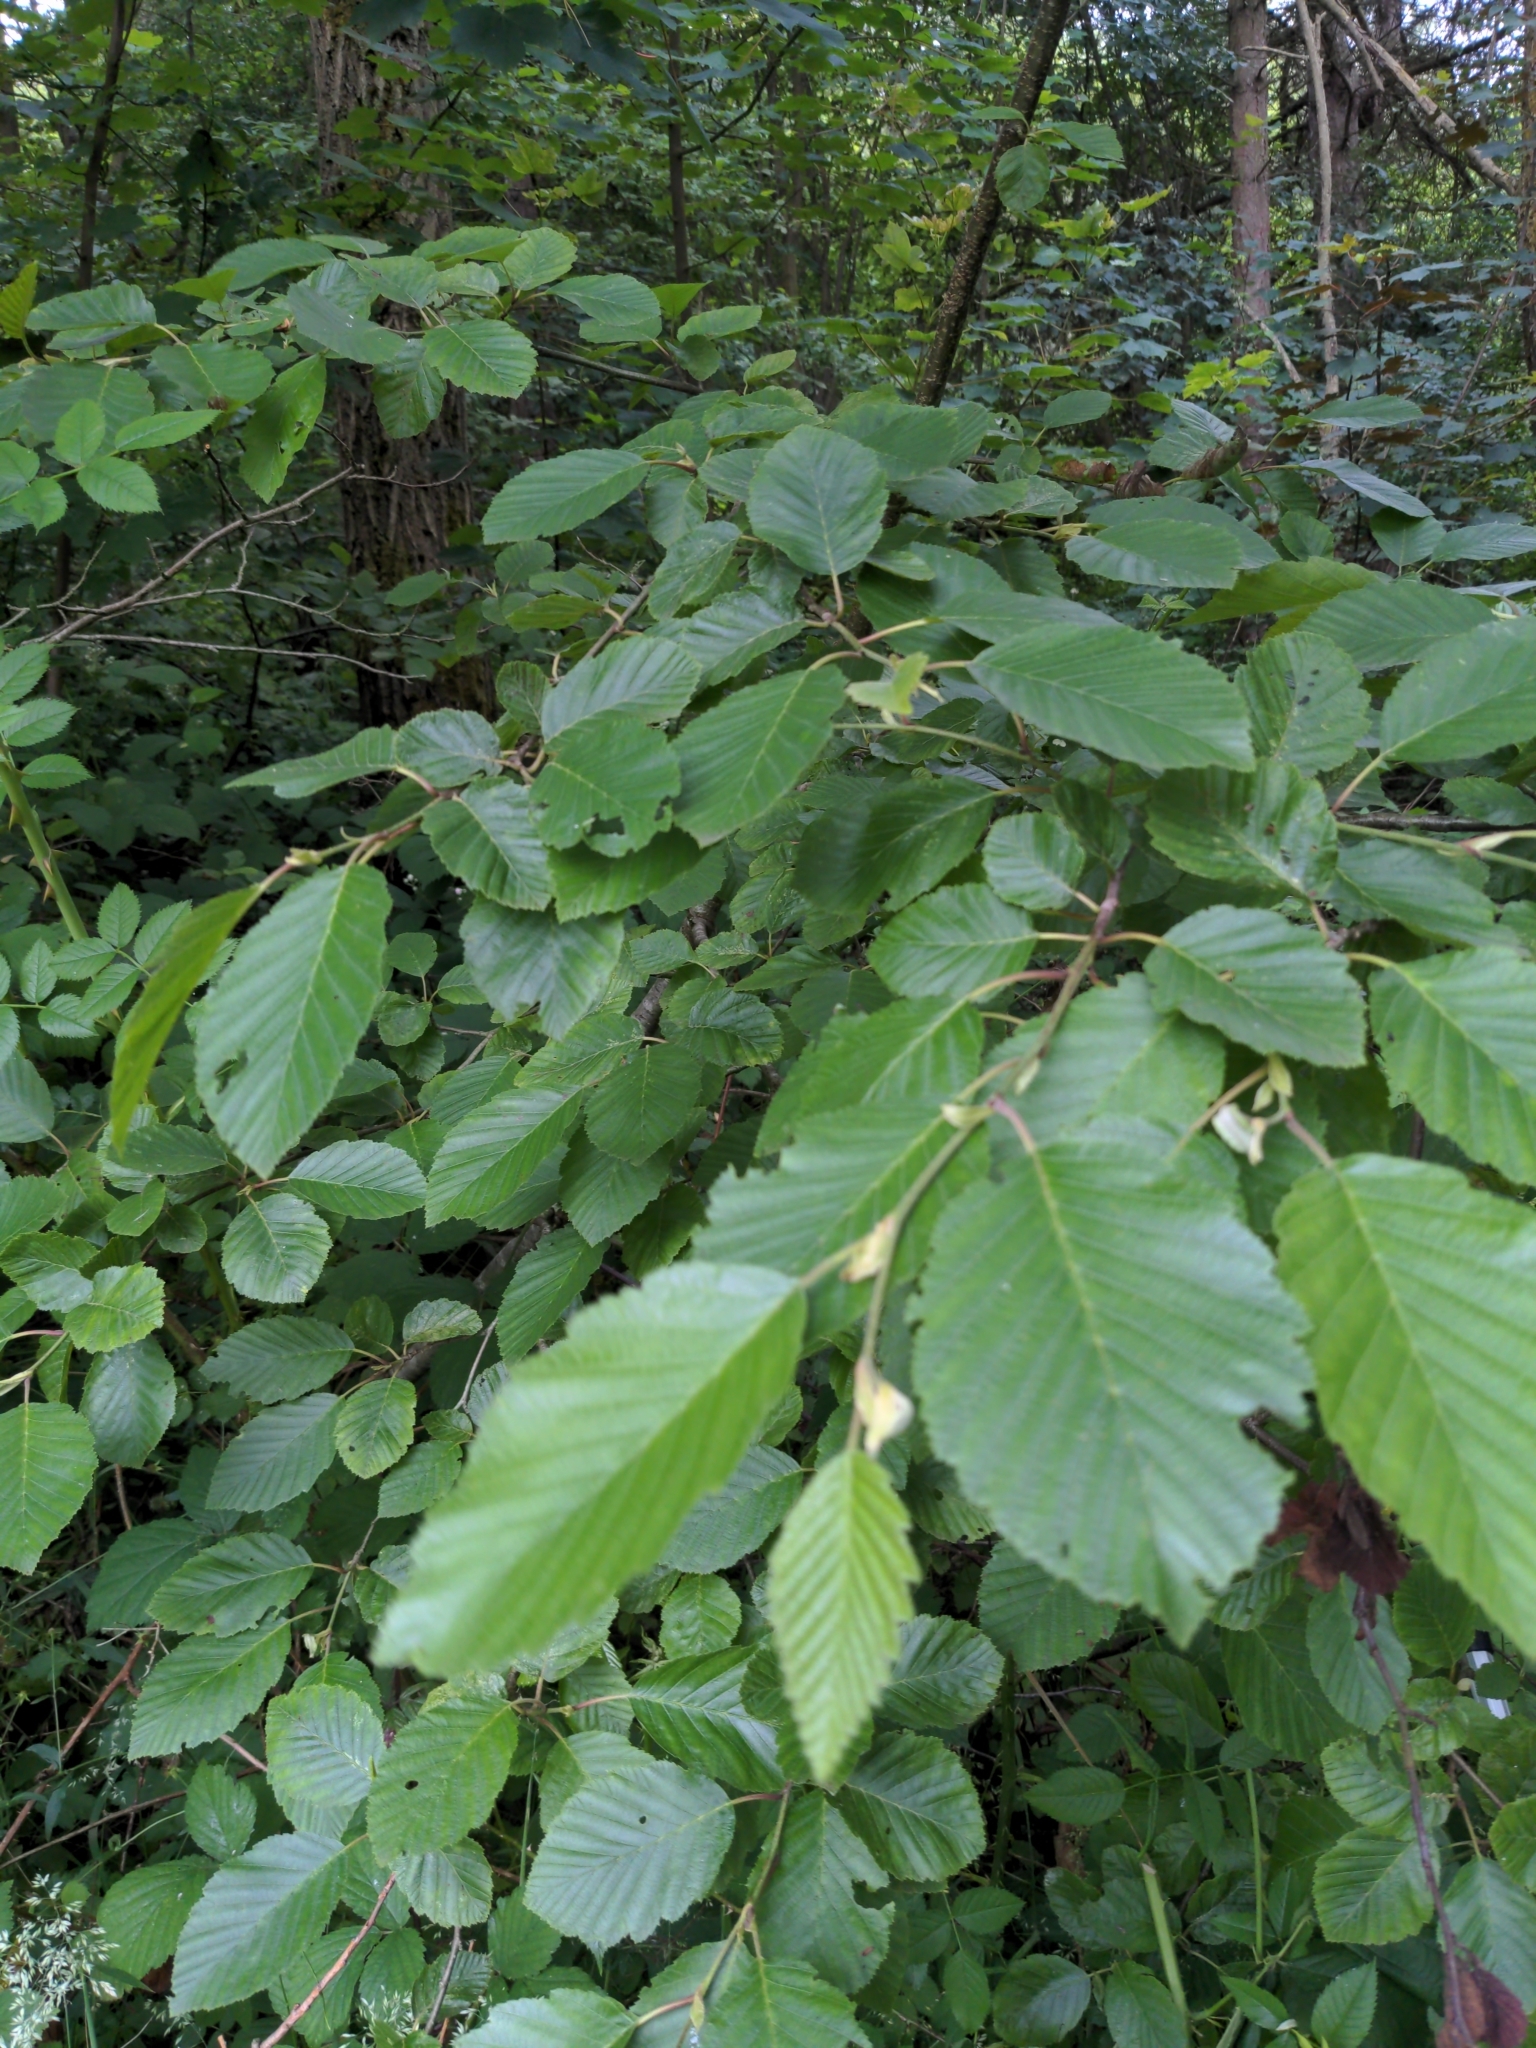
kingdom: Plantae
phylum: Tracheophyta
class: Magnoliopsida
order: Fagales
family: Betulaceae
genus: Alnus
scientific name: Alnus incana
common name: Grey alder
